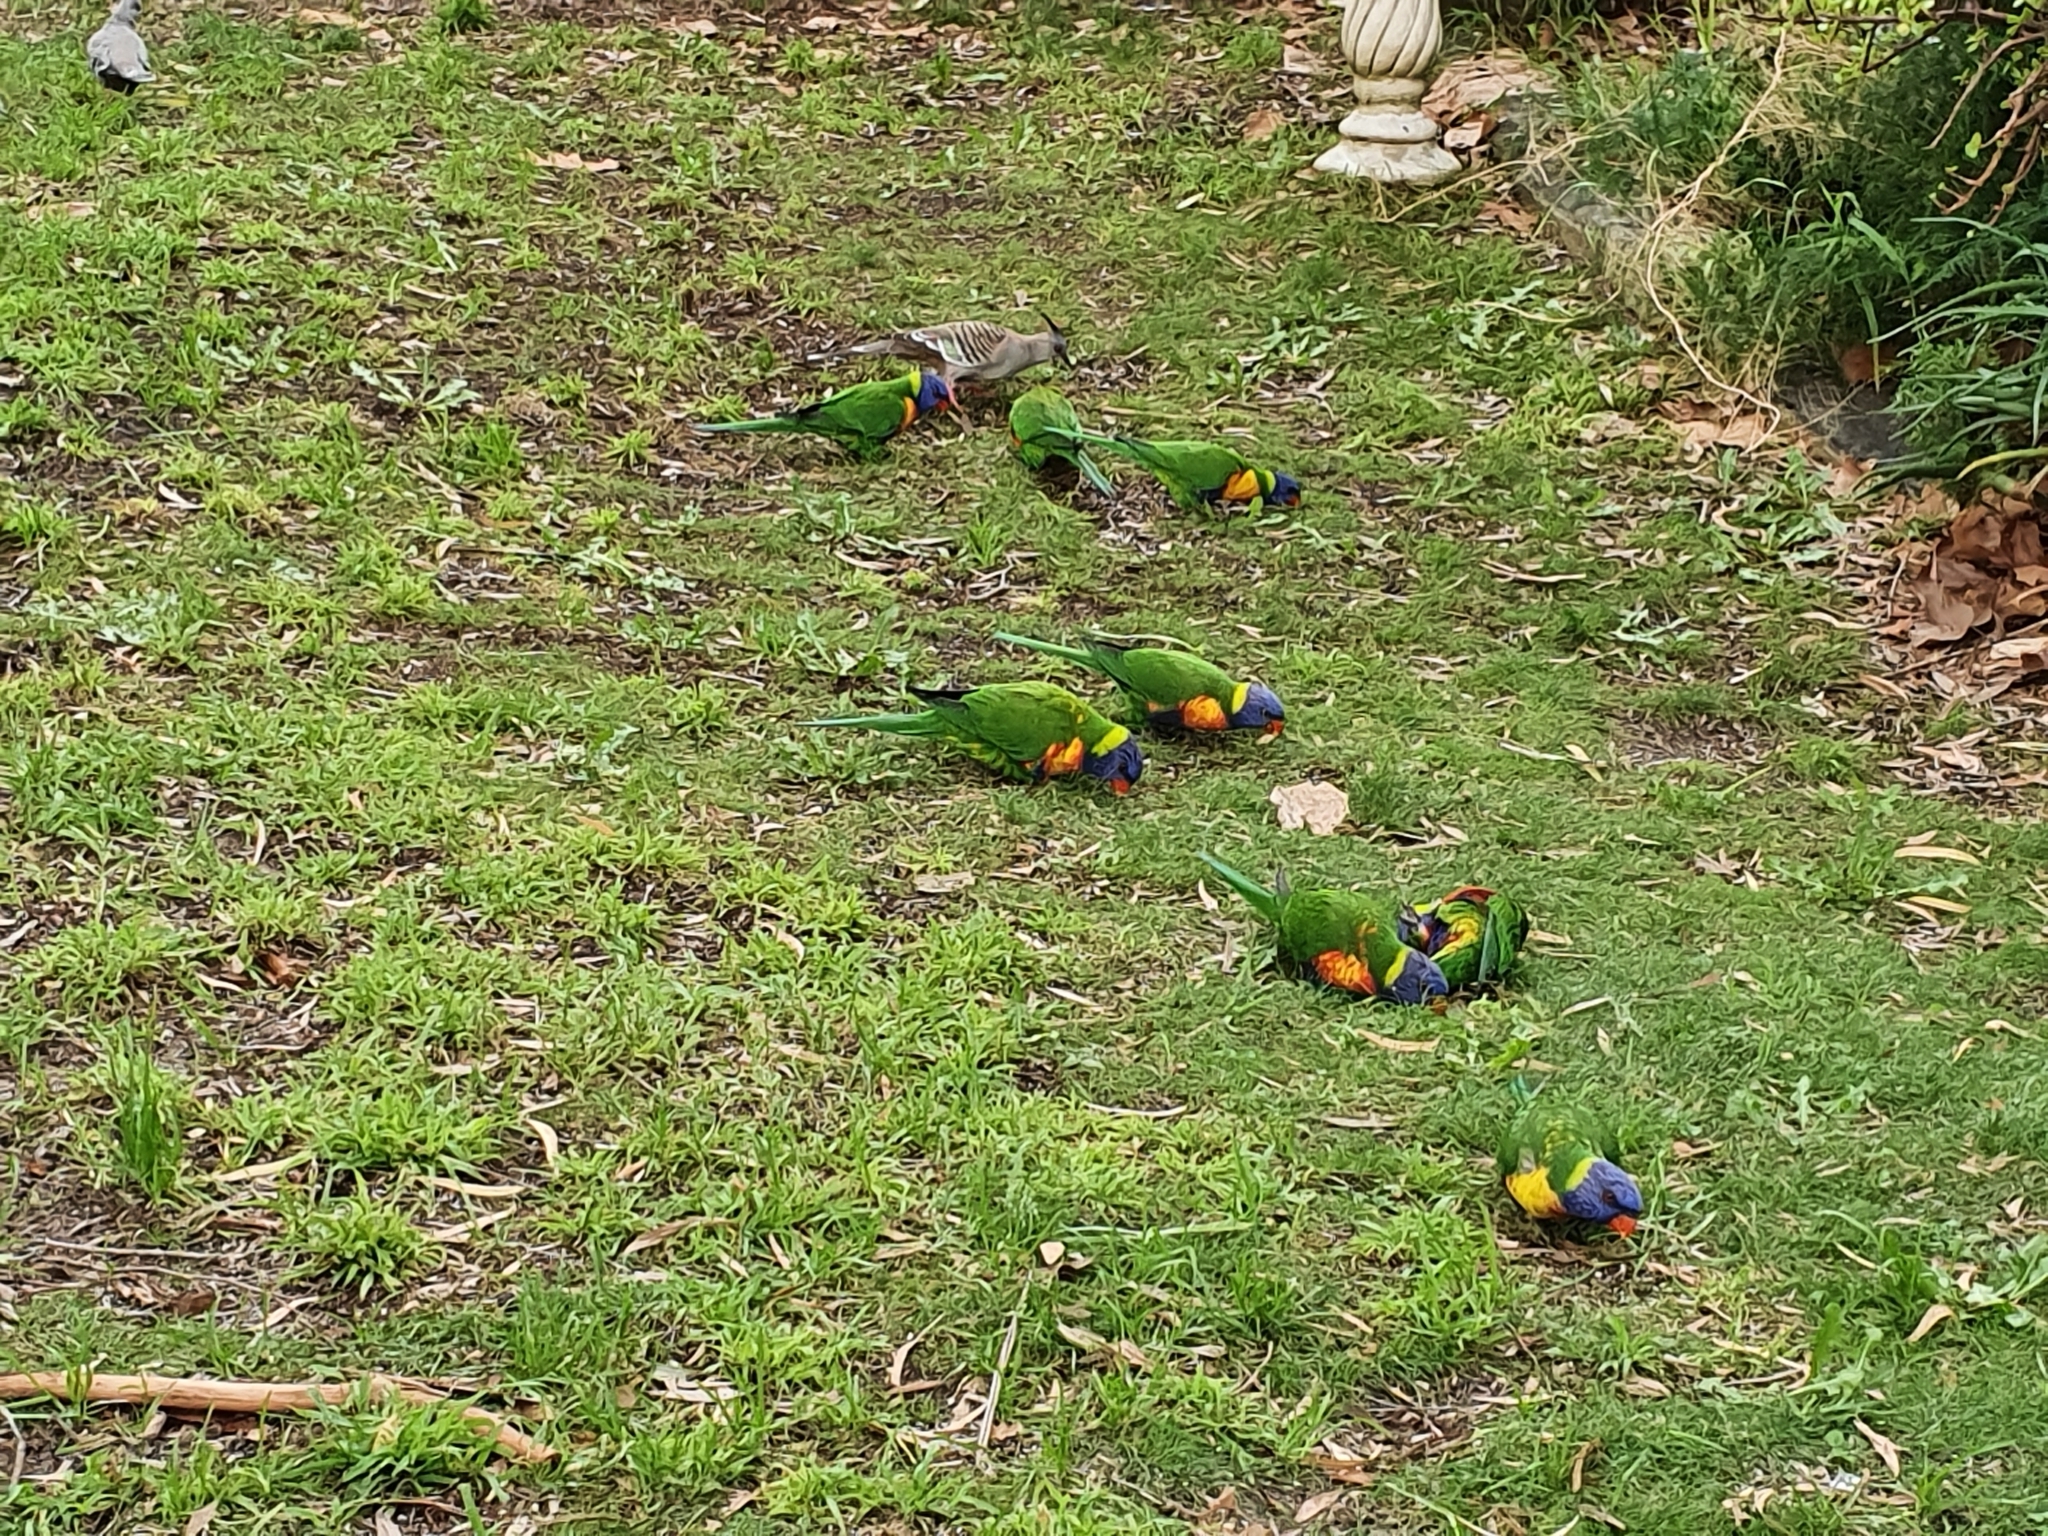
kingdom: Animalia
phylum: Chordata
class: Aves
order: Psittaciformes
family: Psittacidae
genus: Trichoglossus
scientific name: Trichoglossus haematodus
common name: Coconut lorikeet
